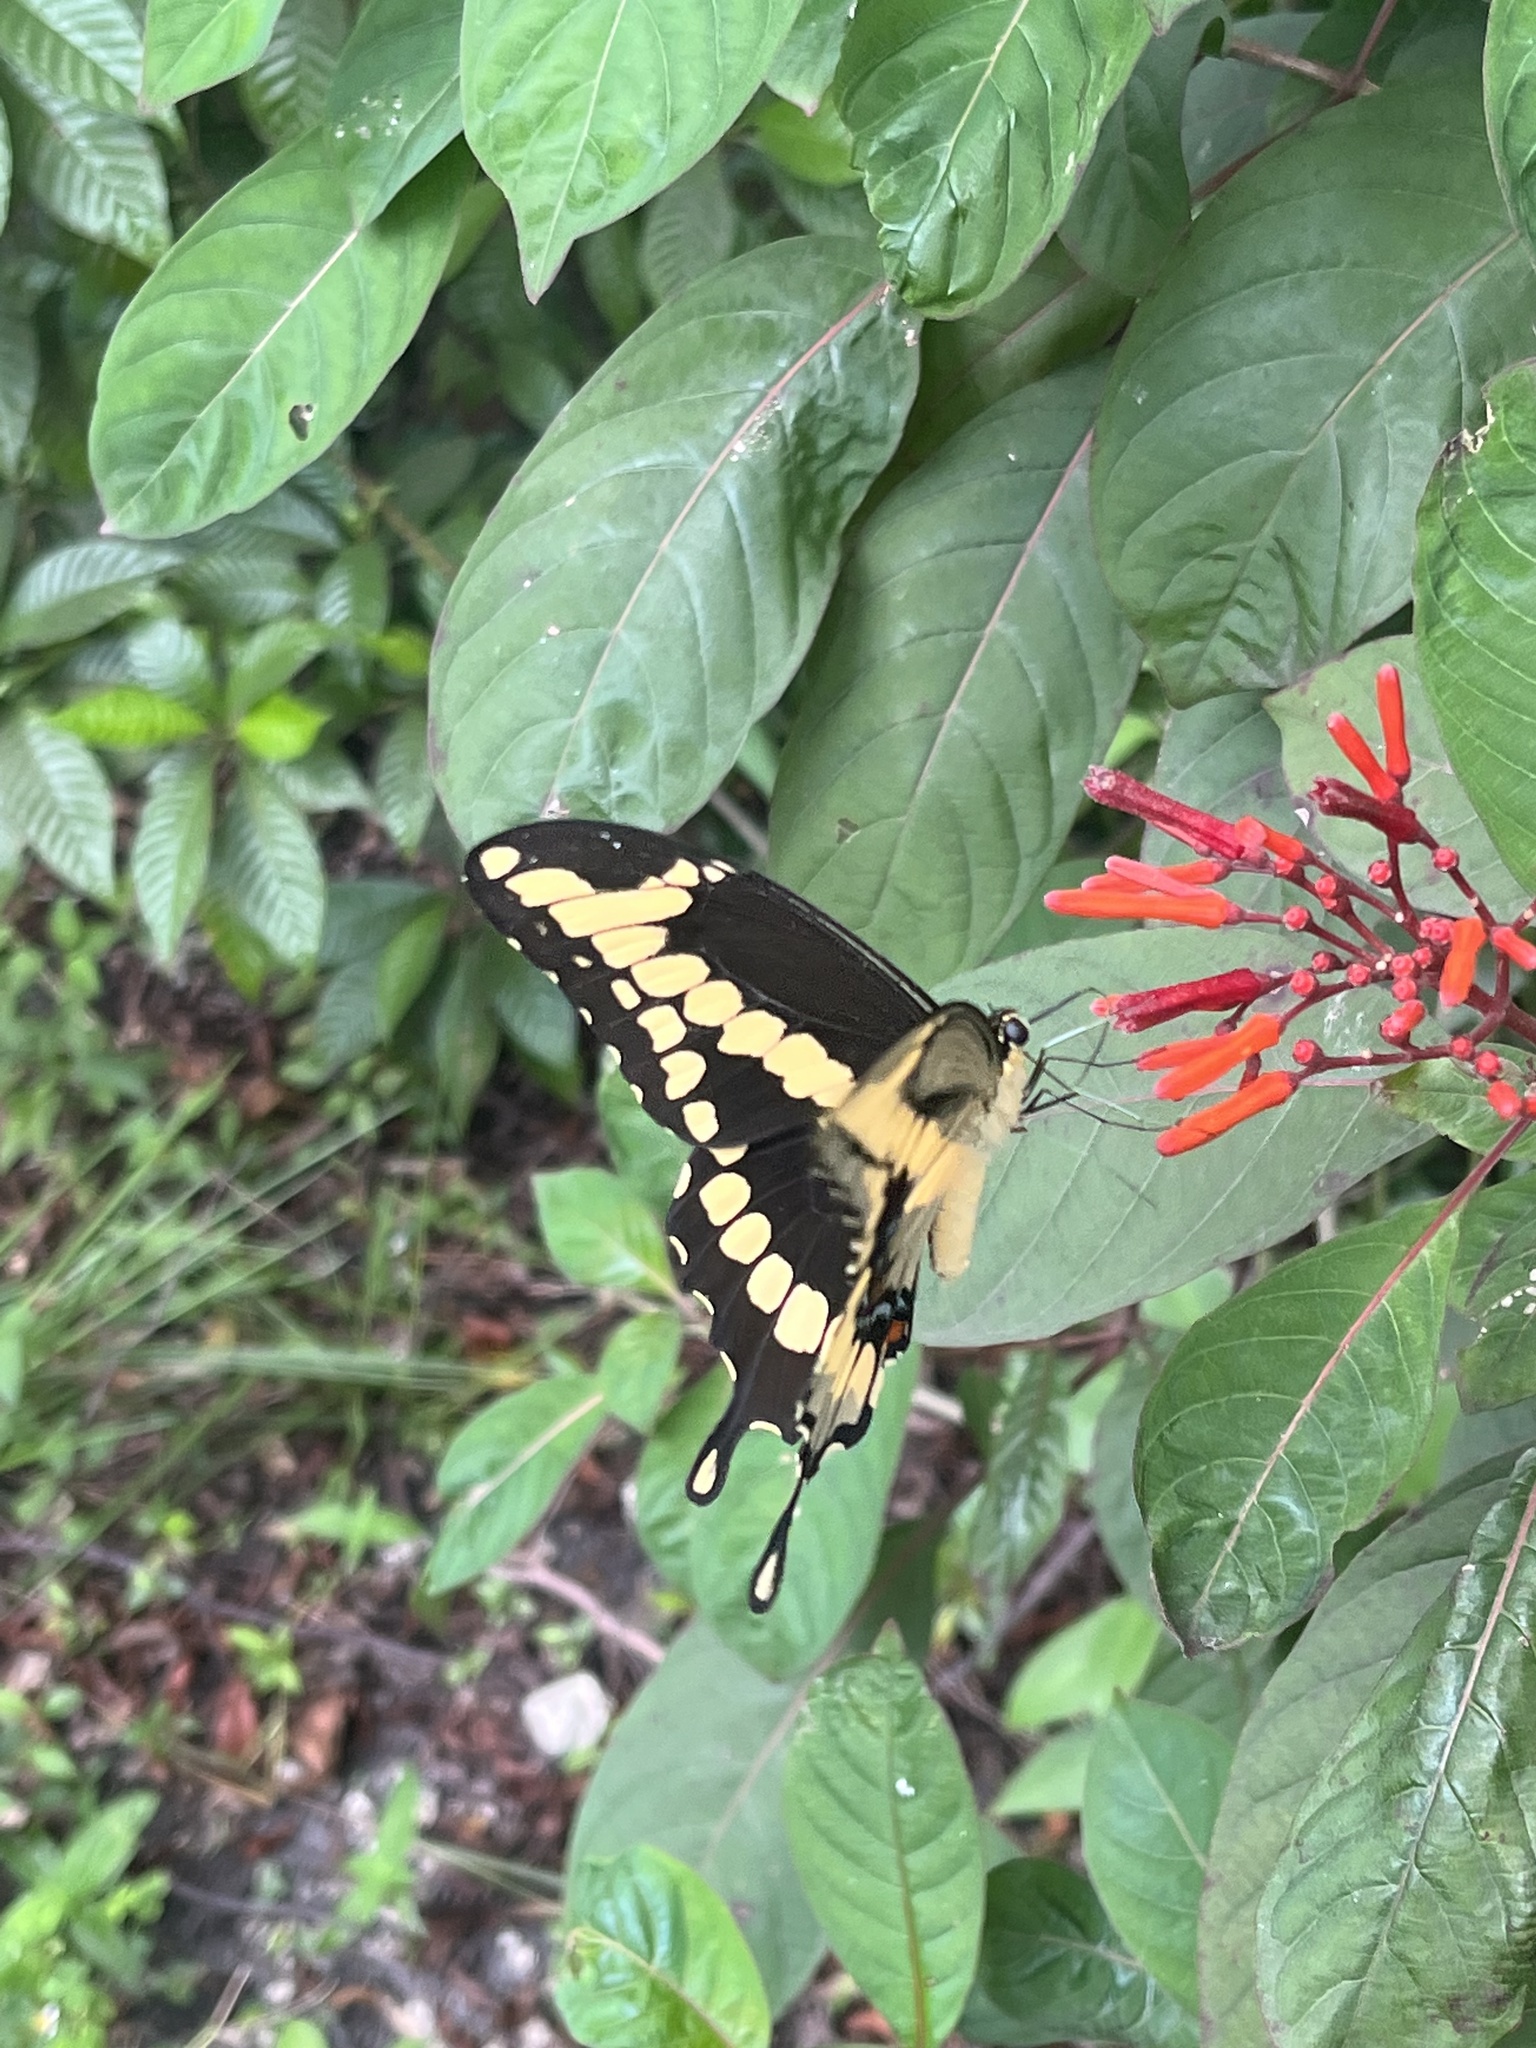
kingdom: Animalia
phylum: Arthropoda
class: Insecta
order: Lepidoptera
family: Papilionidae
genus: Papilio
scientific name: Papilio cresphontes
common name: Giant swallowtail
